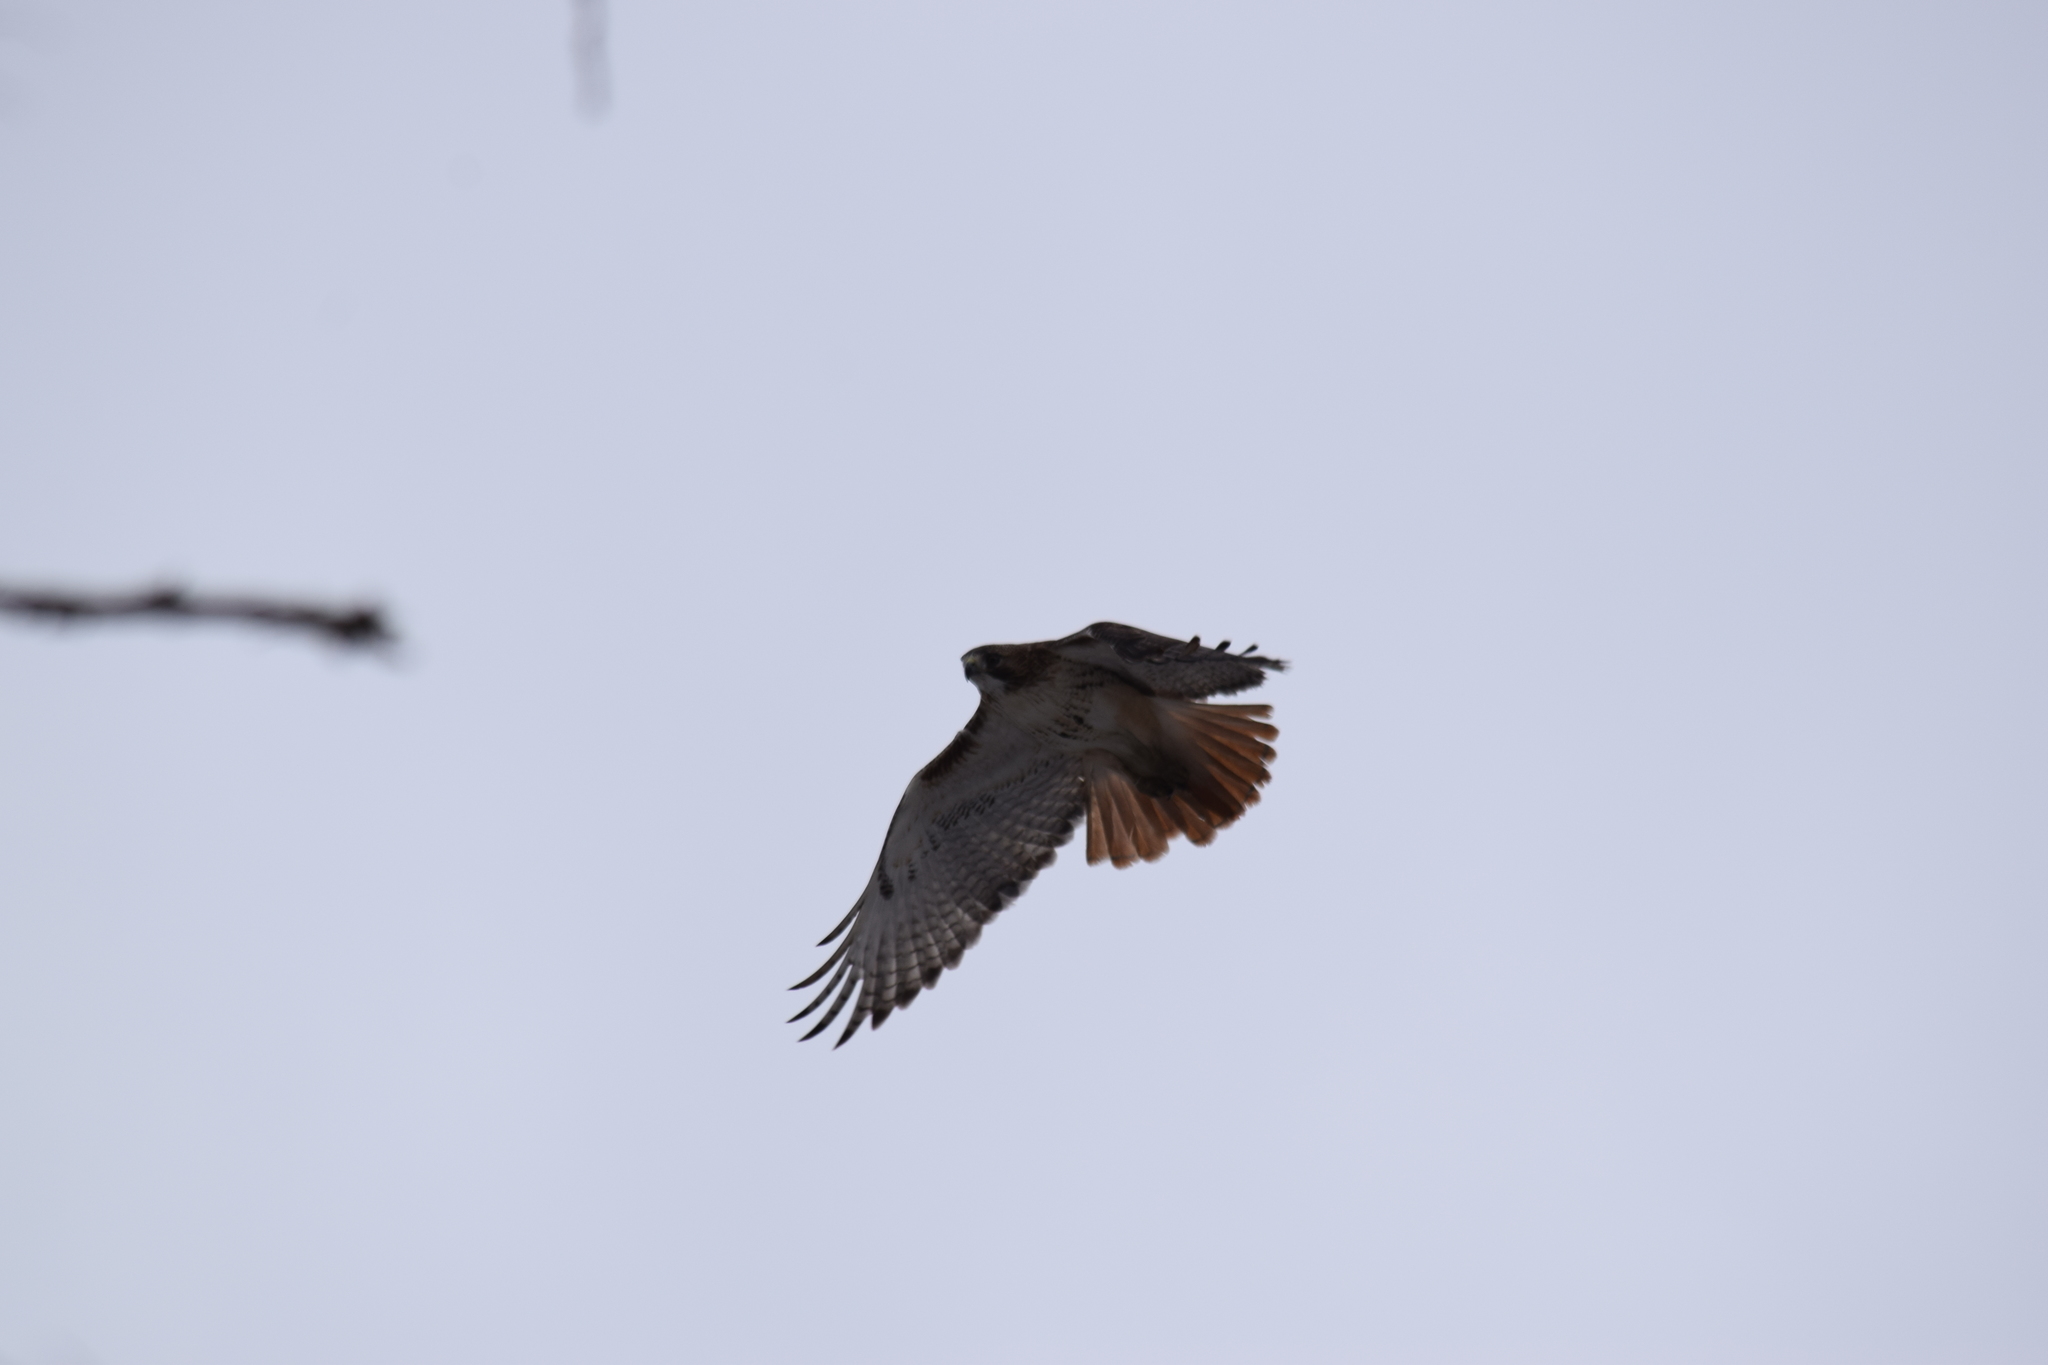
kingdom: Animalia
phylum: Chordata
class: Aves
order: Accipitriformes
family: Accipitridae
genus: Buteo
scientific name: Buteo jamaicensis
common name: Red-tailed hawk
